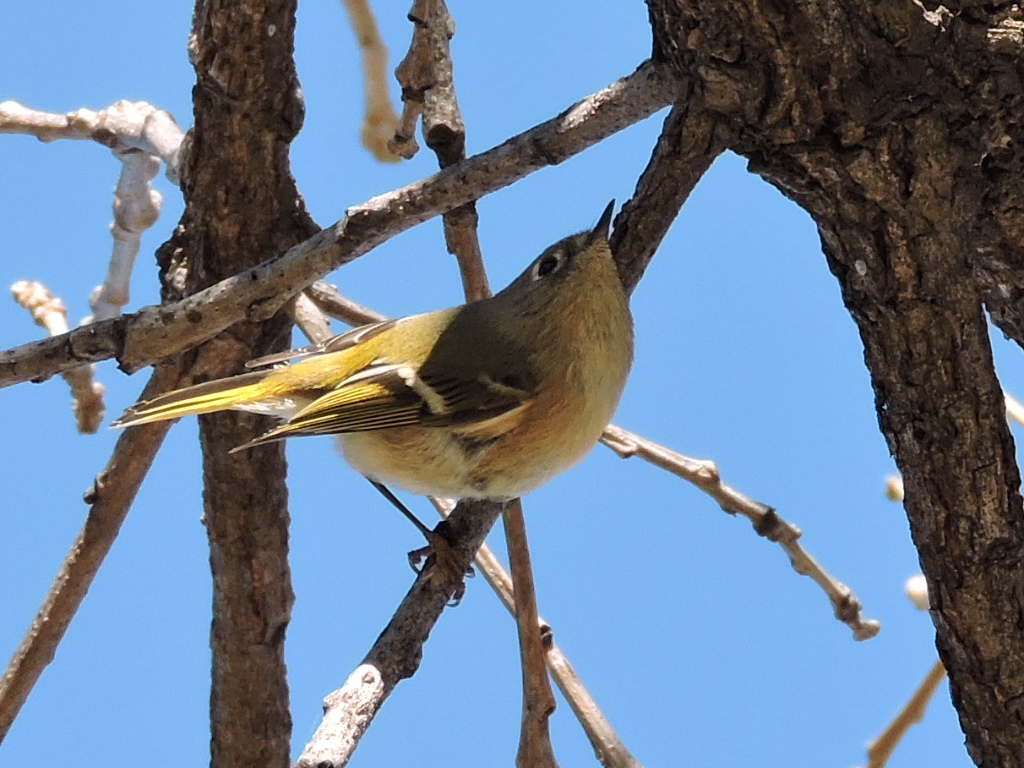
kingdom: Animalia
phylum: Chordata
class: Aves
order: Passeriformes
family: Regulidae
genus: Regulus
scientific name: Regulus calendula
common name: Ruby-crowned kinglet
